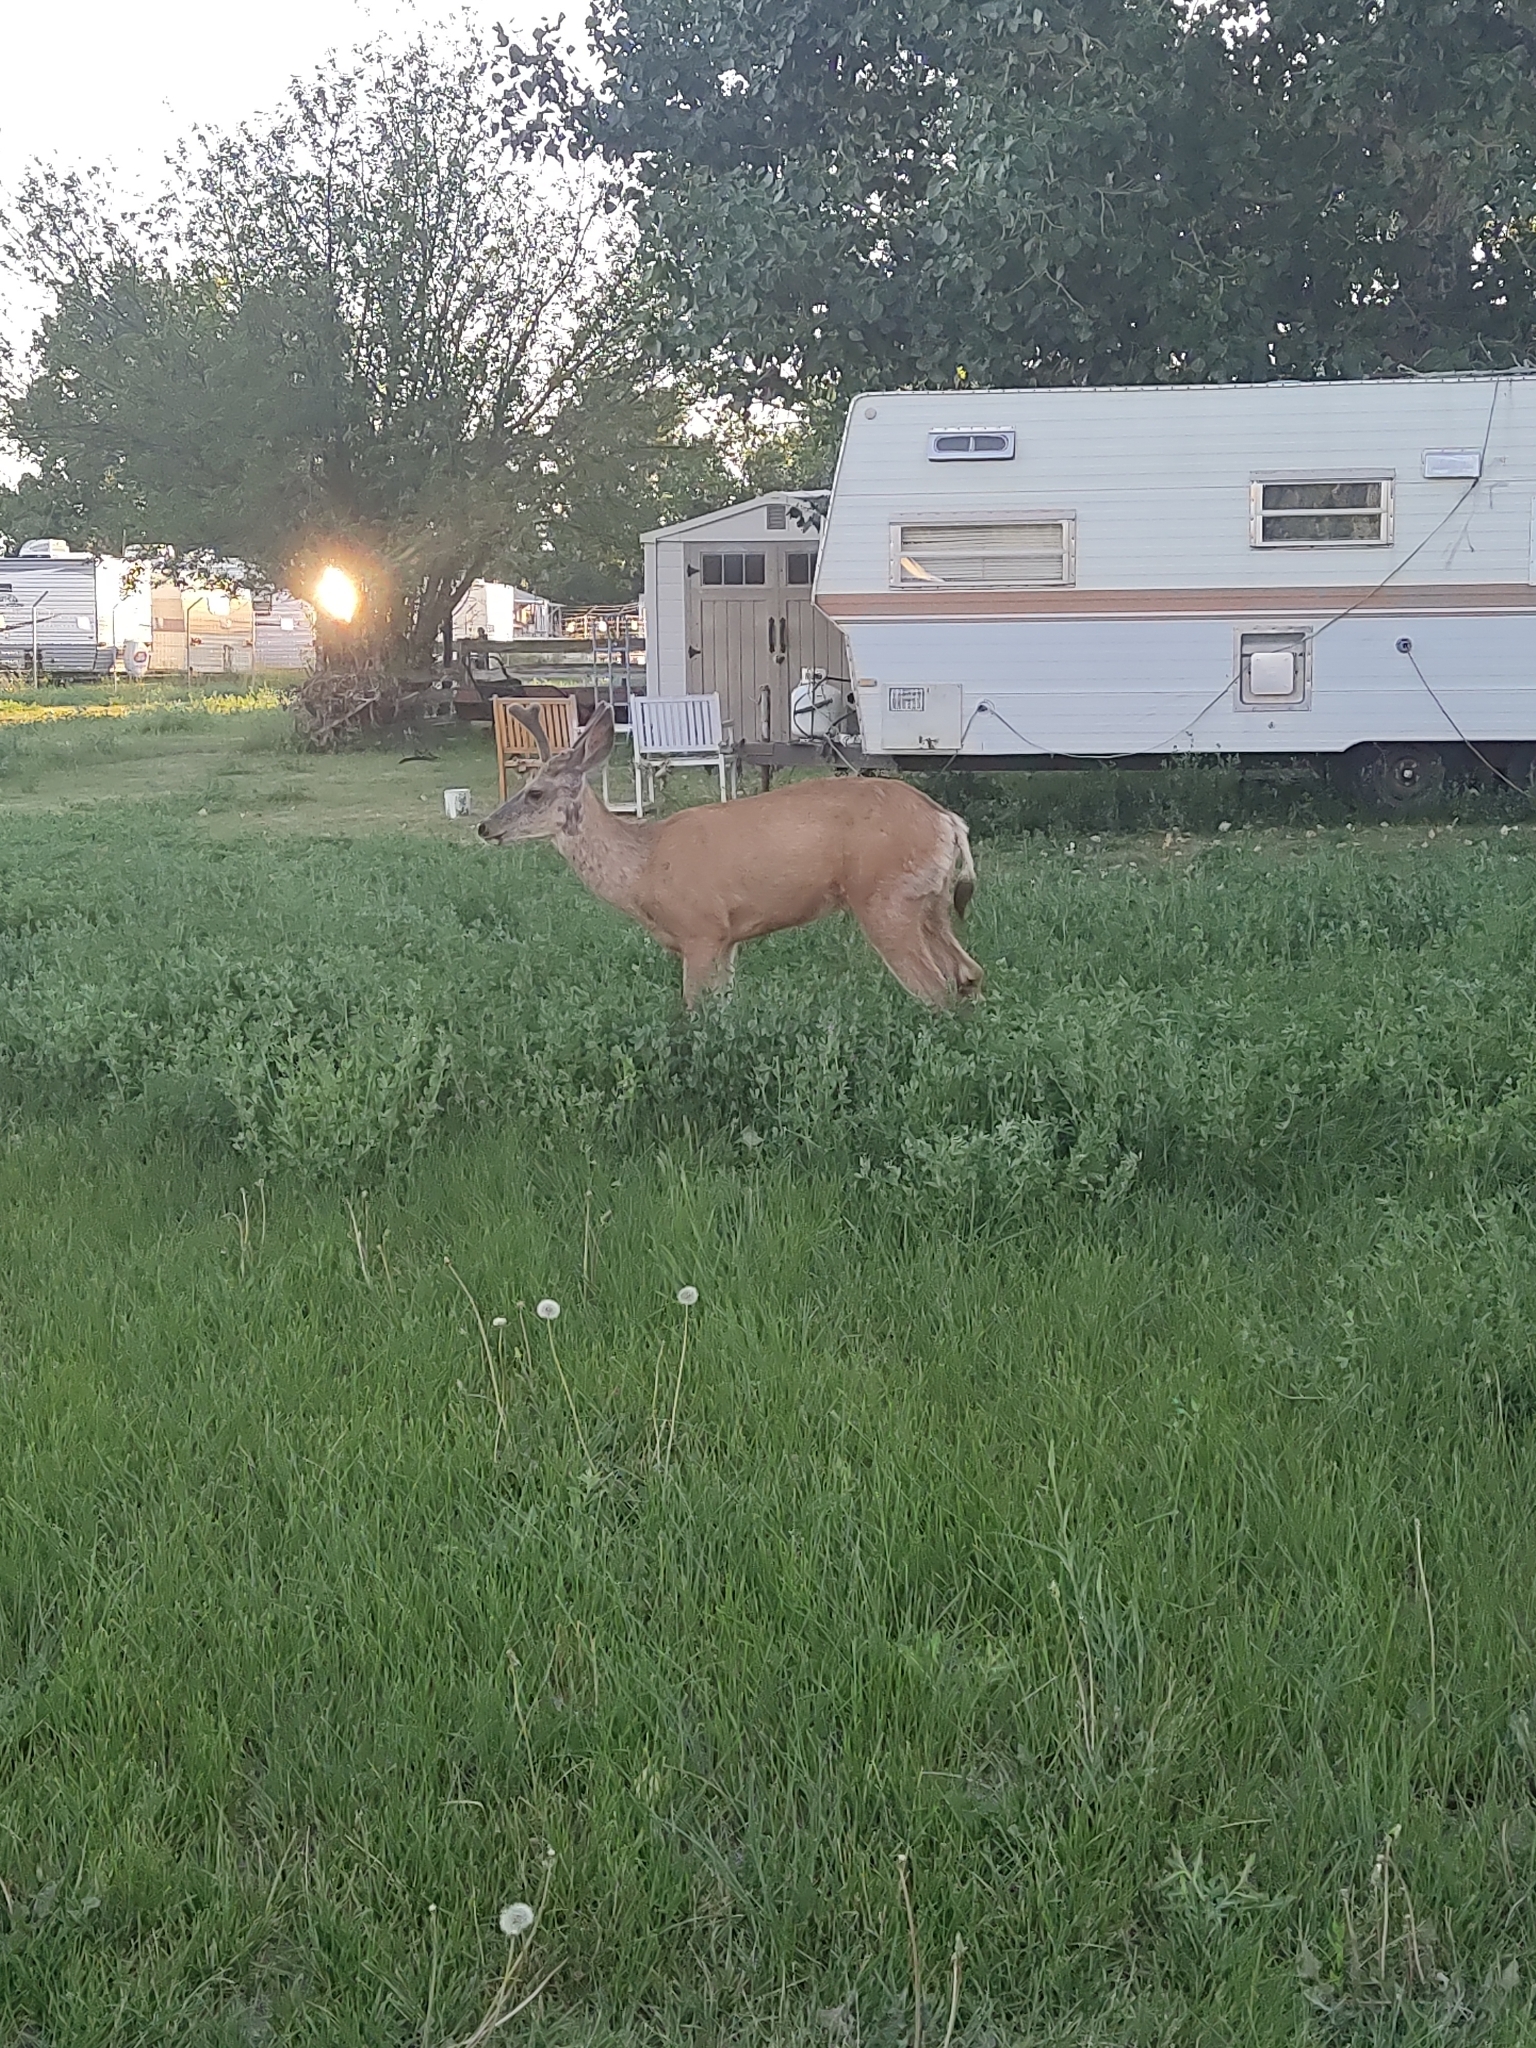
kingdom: Animalia
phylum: Chordata
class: Mammalia
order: Artiodactyla
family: Cervidae
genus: Odocoileus
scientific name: Odocoileus hemionus
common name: Mule deer
